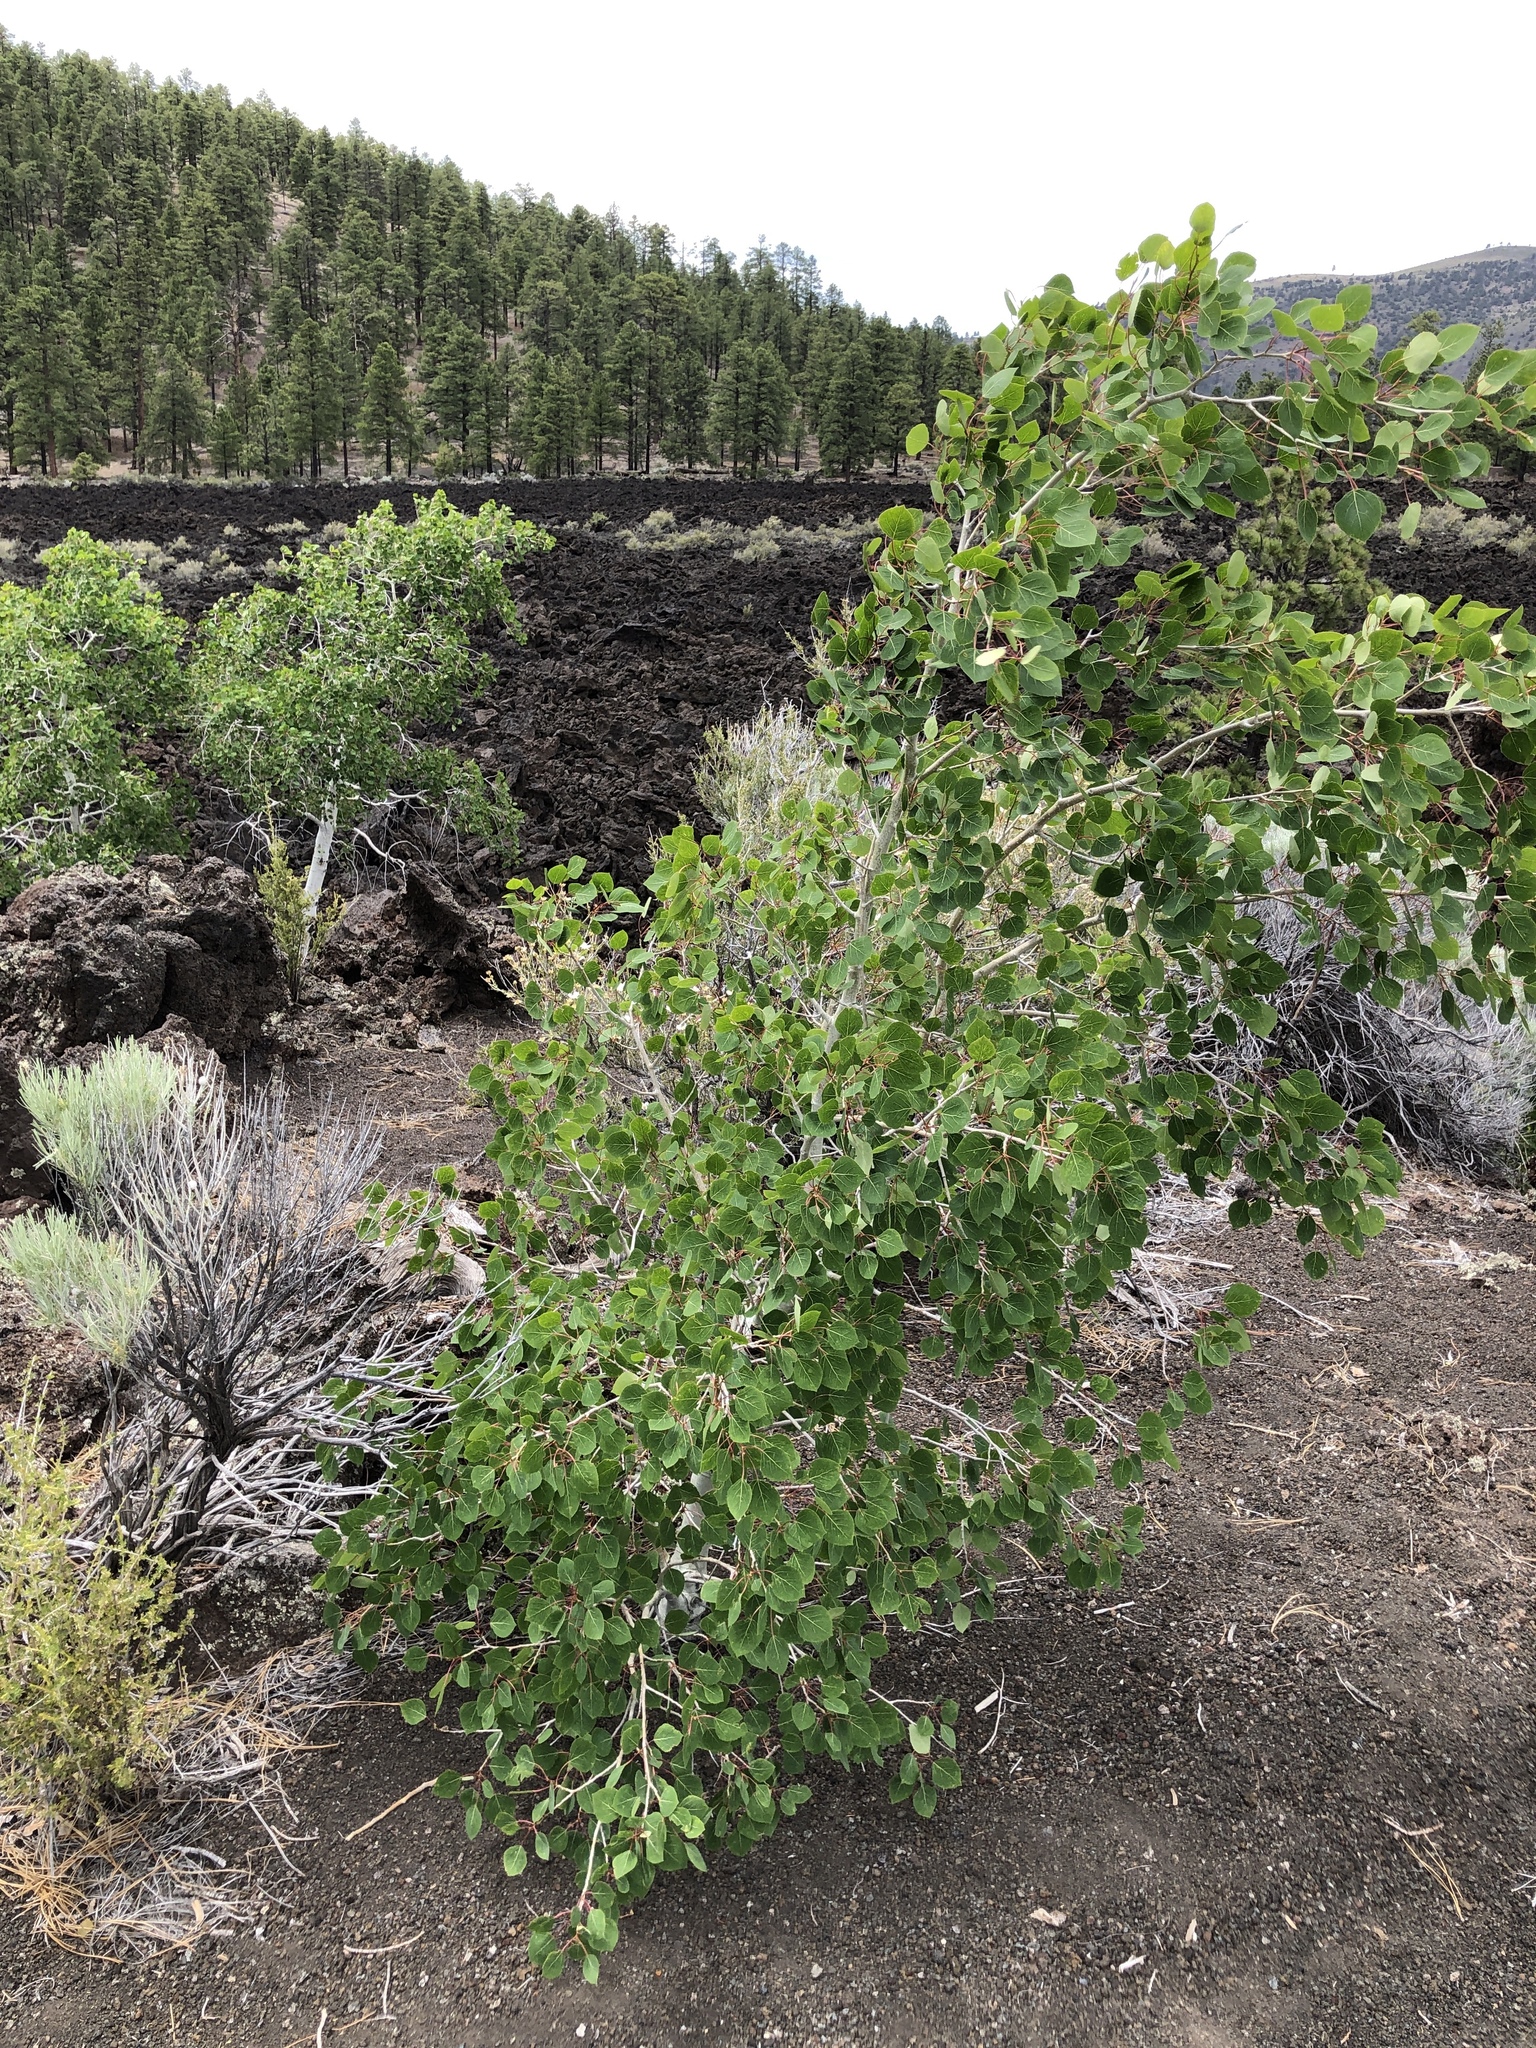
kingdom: Plantae
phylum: Tracheophyta
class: Magnoliopsida
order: Malpighiales
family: Salicaceae
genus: Populus
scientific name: Populus tremuloides
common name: Quaking aspen
